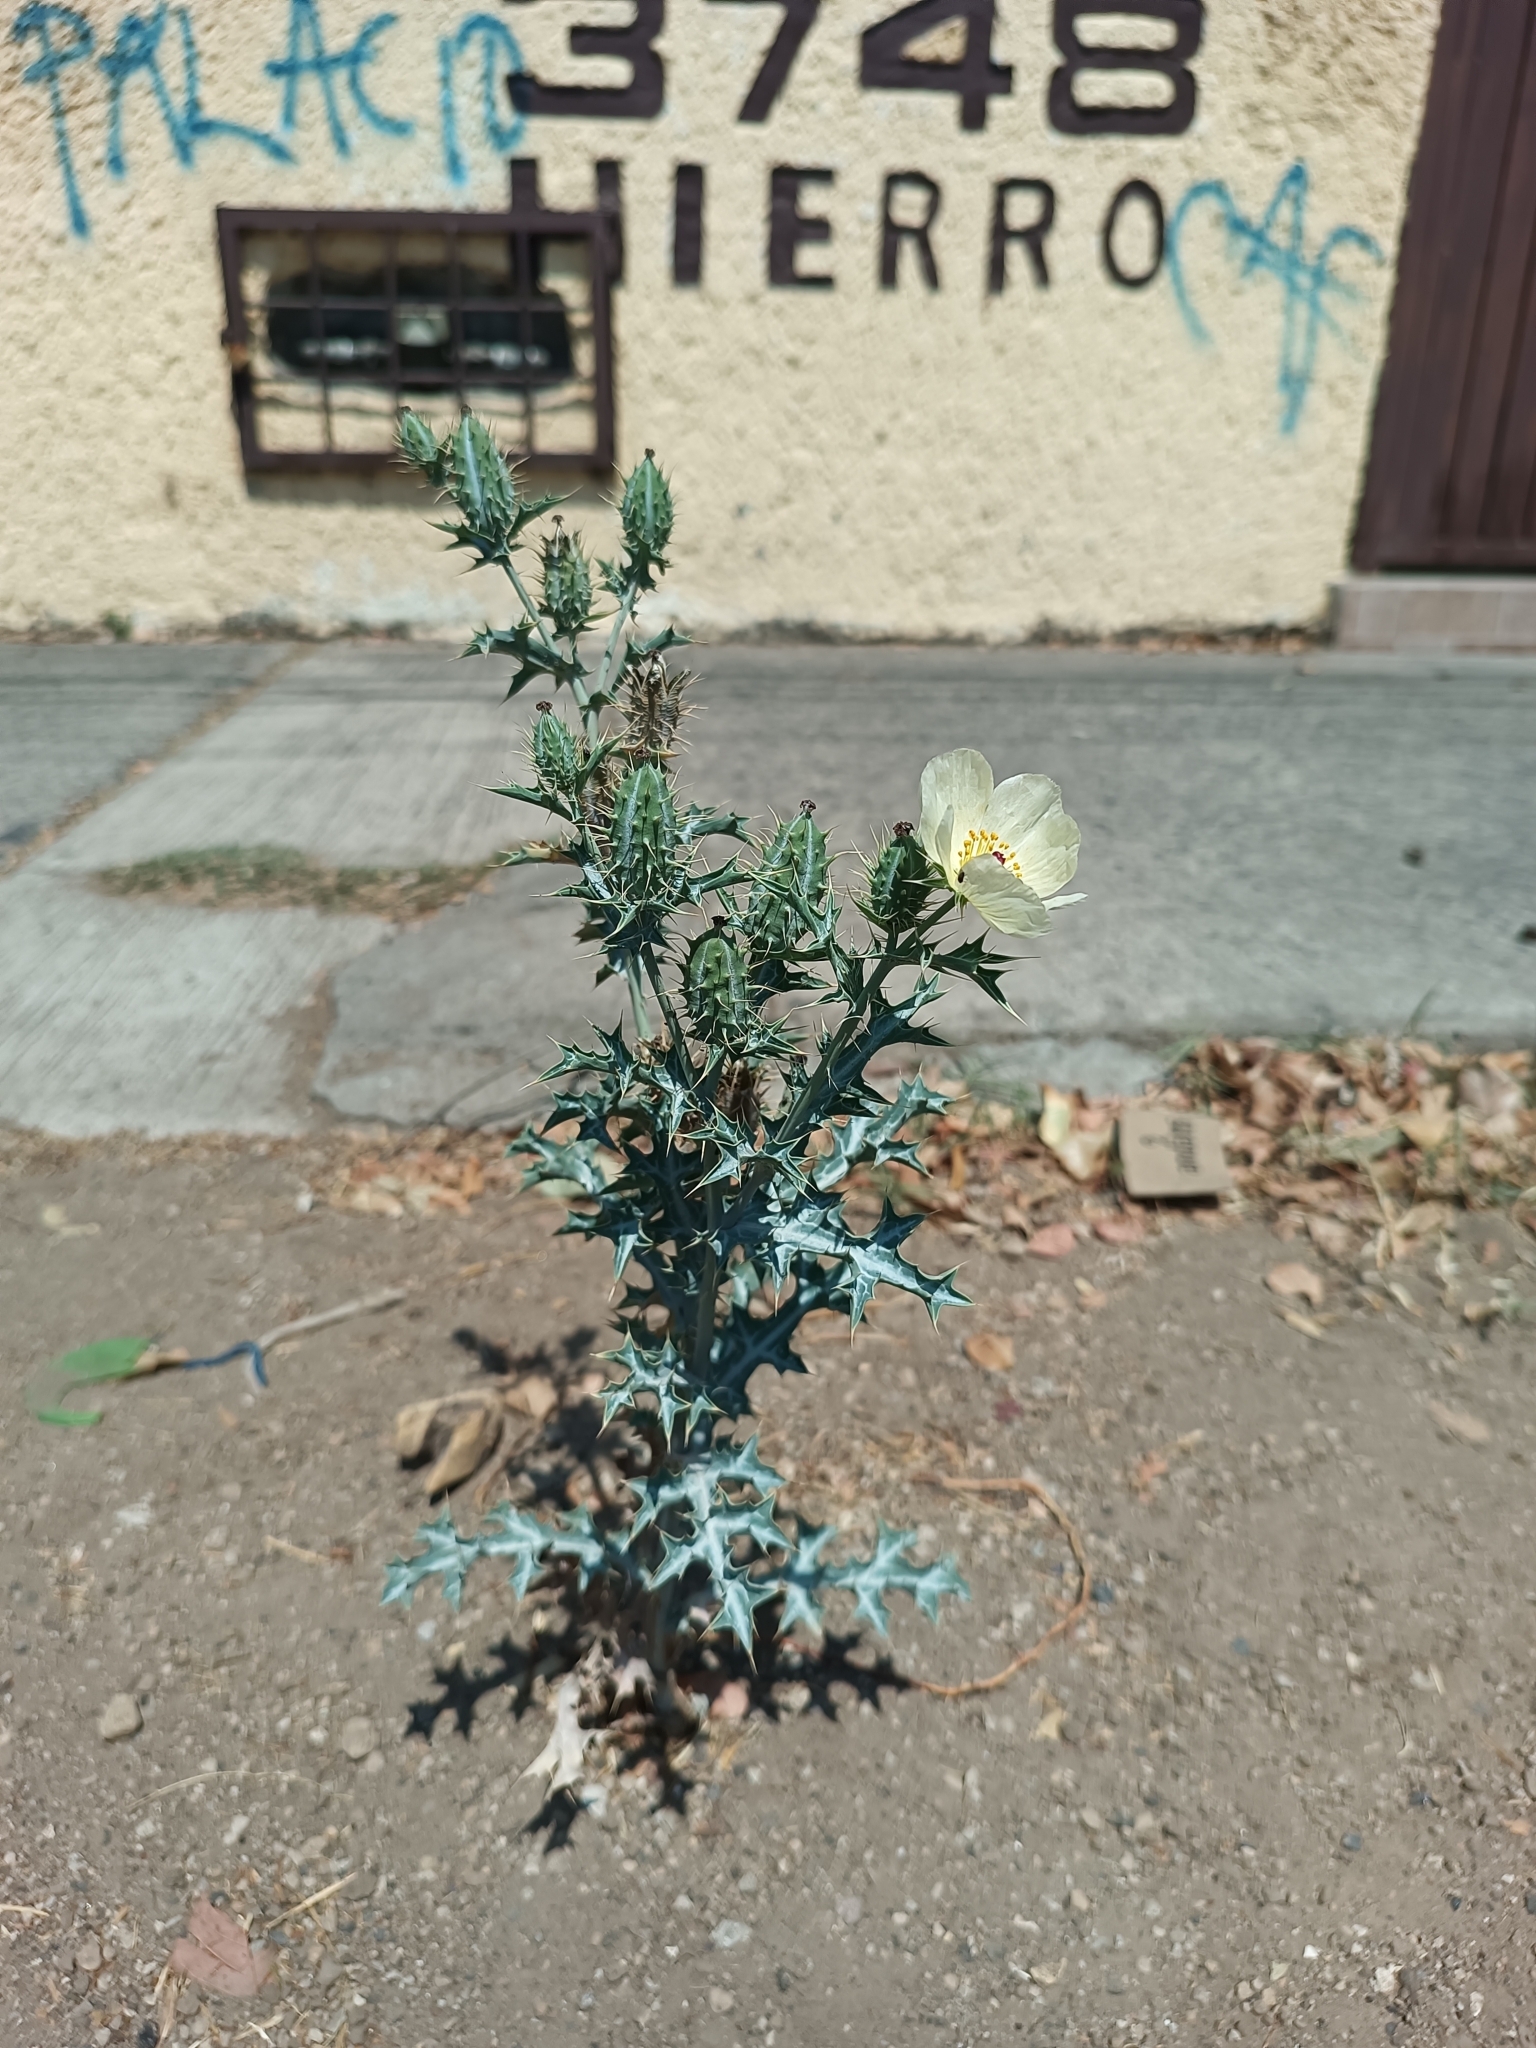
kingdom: Plantae
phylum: Tracheophyta
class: Magnoliopsida
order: Ranunculales
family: Papaveraceae
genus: Argemone
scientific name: Argemone ochroleuca
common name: White-flower mexican-poppy
